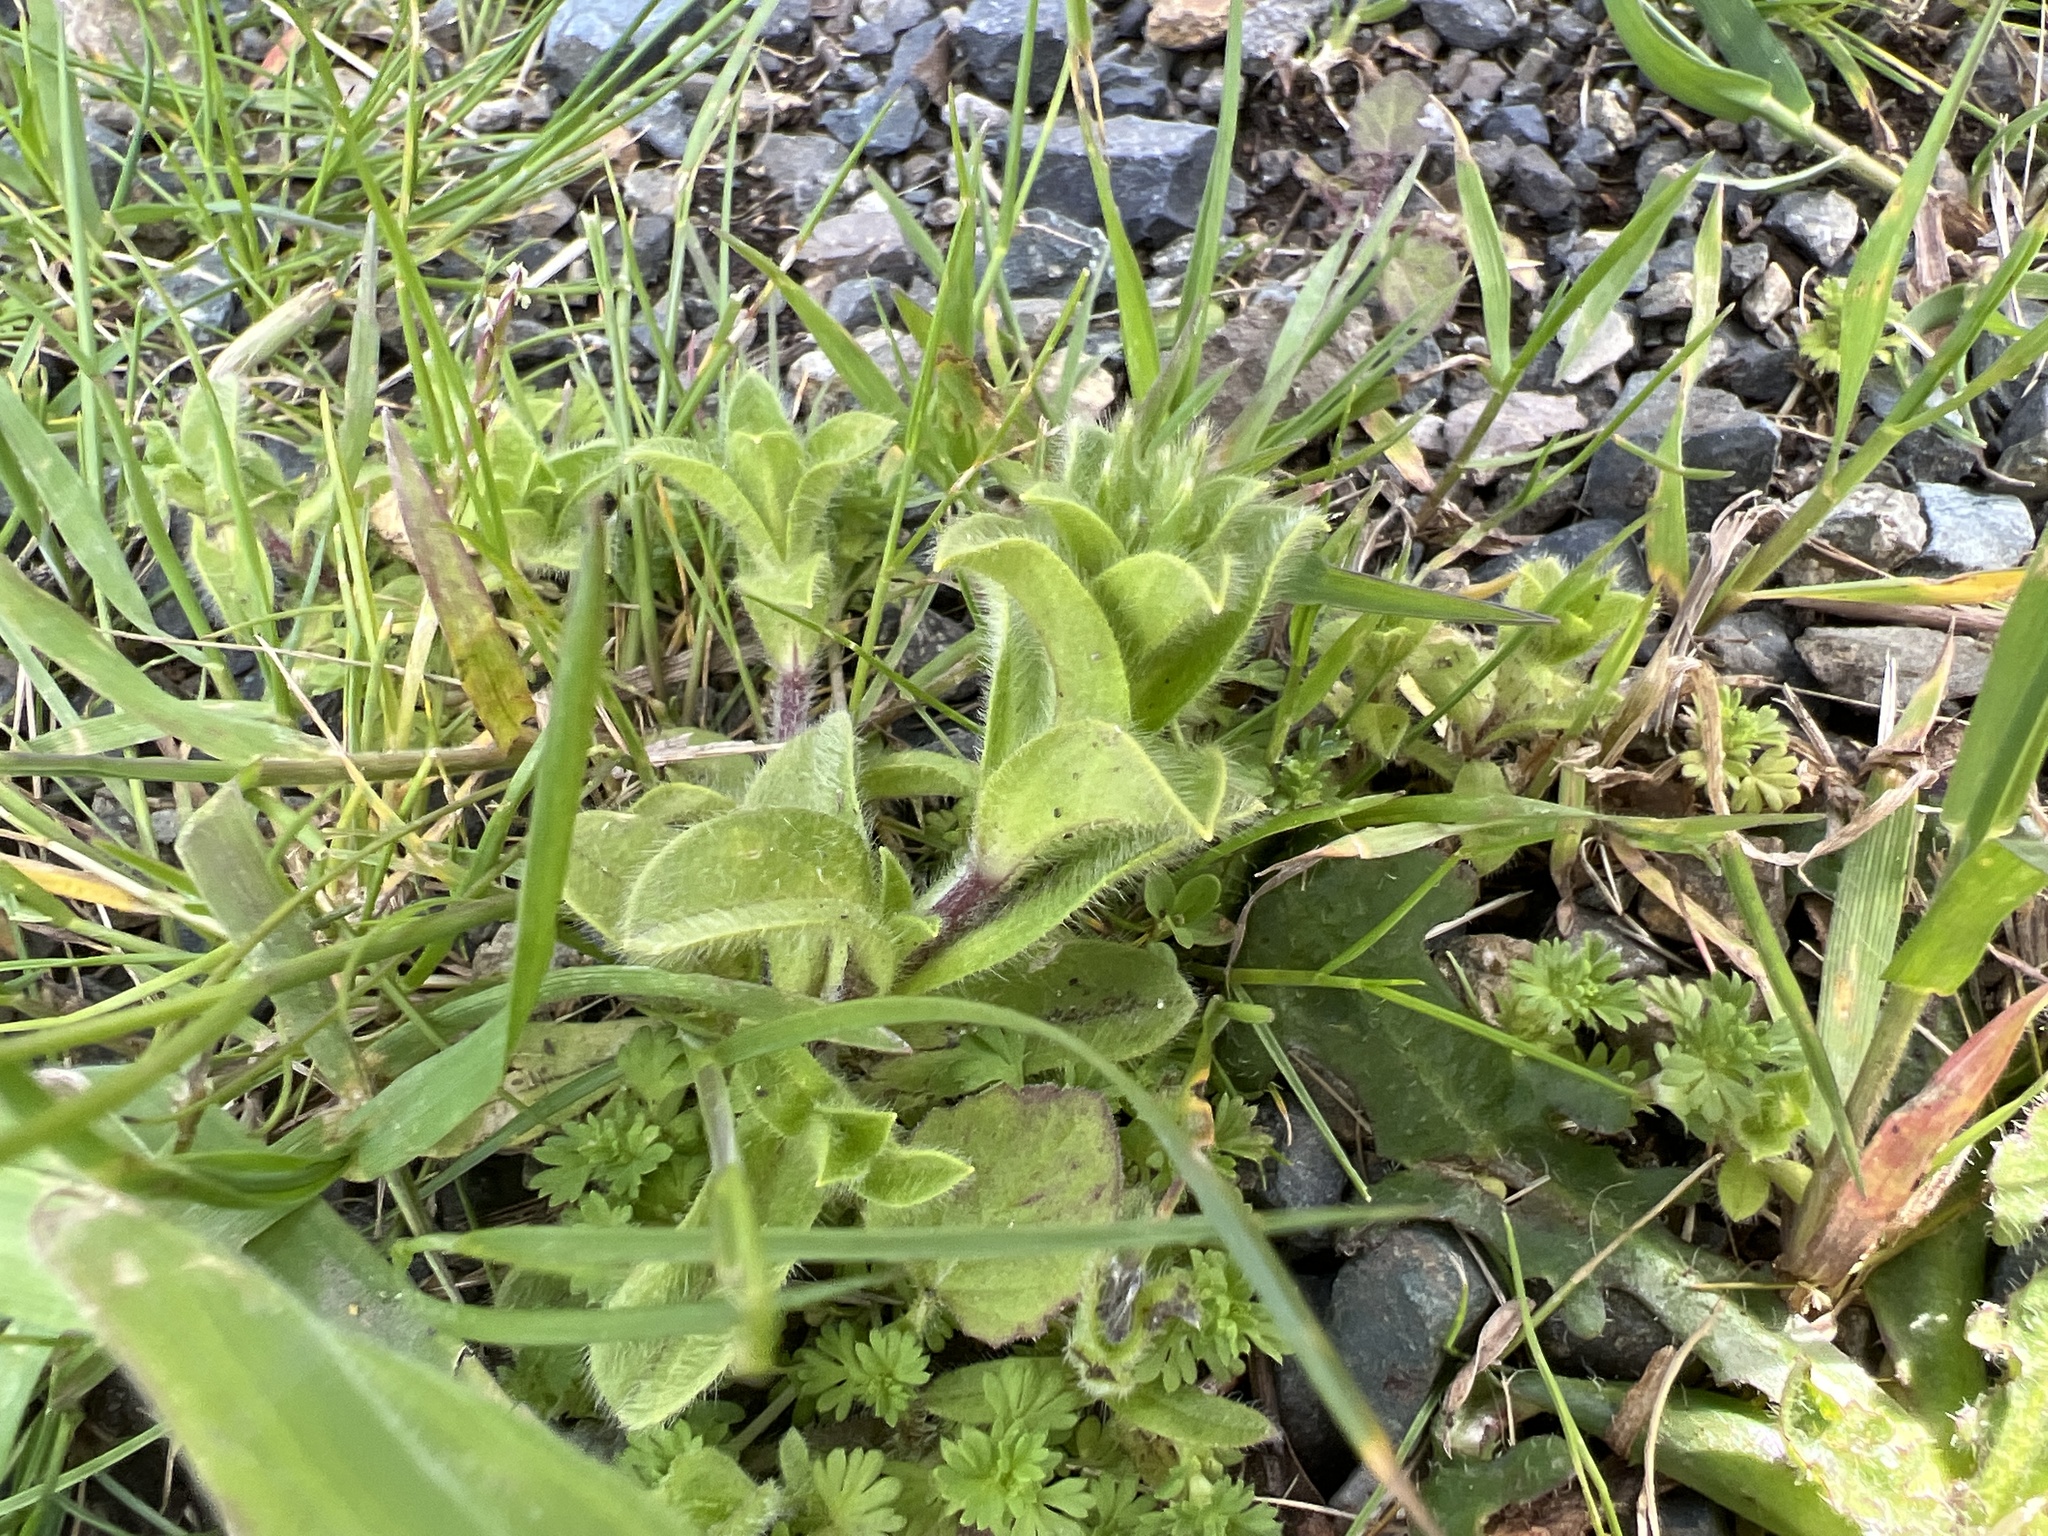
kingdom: Plantae
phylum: Tracheophyta
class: Magnoliopsida
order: Caryophyllales
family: Caryophyllaceae
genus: Cerastium
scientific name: Cerastium glomeratum
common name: Sticky chickweed
